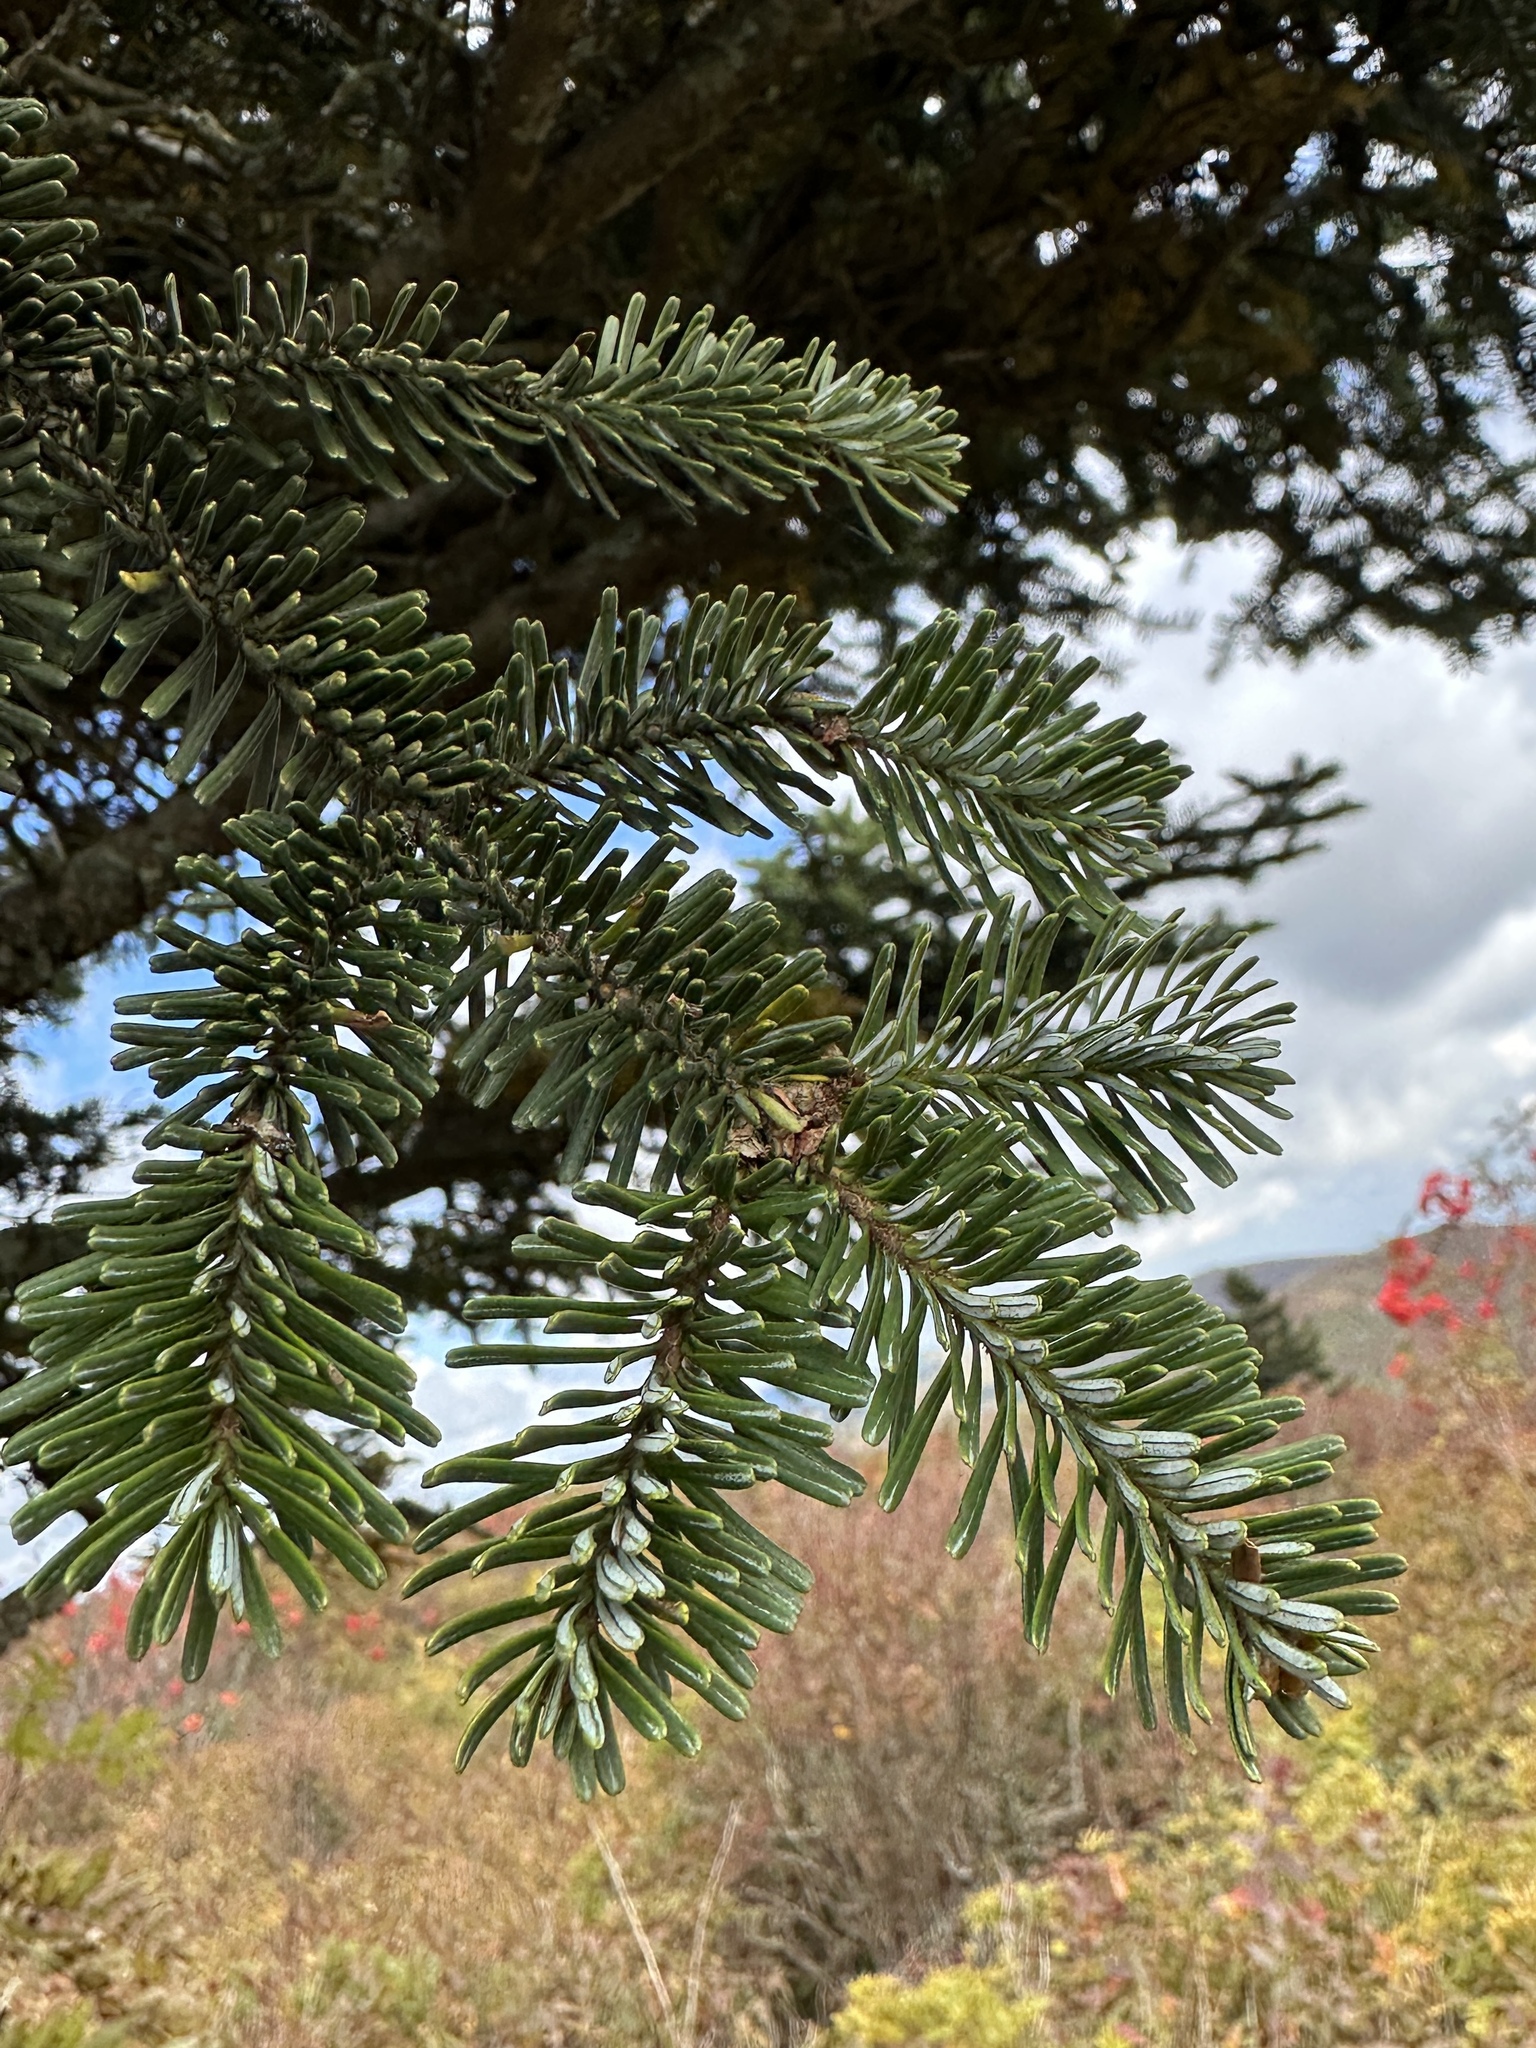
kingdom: Plantae
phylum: Tracheophyta
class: Pinopsida
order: Pinales
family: Pinaceae
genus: Abies
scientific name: Abies fraseri
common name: Fraser fir
